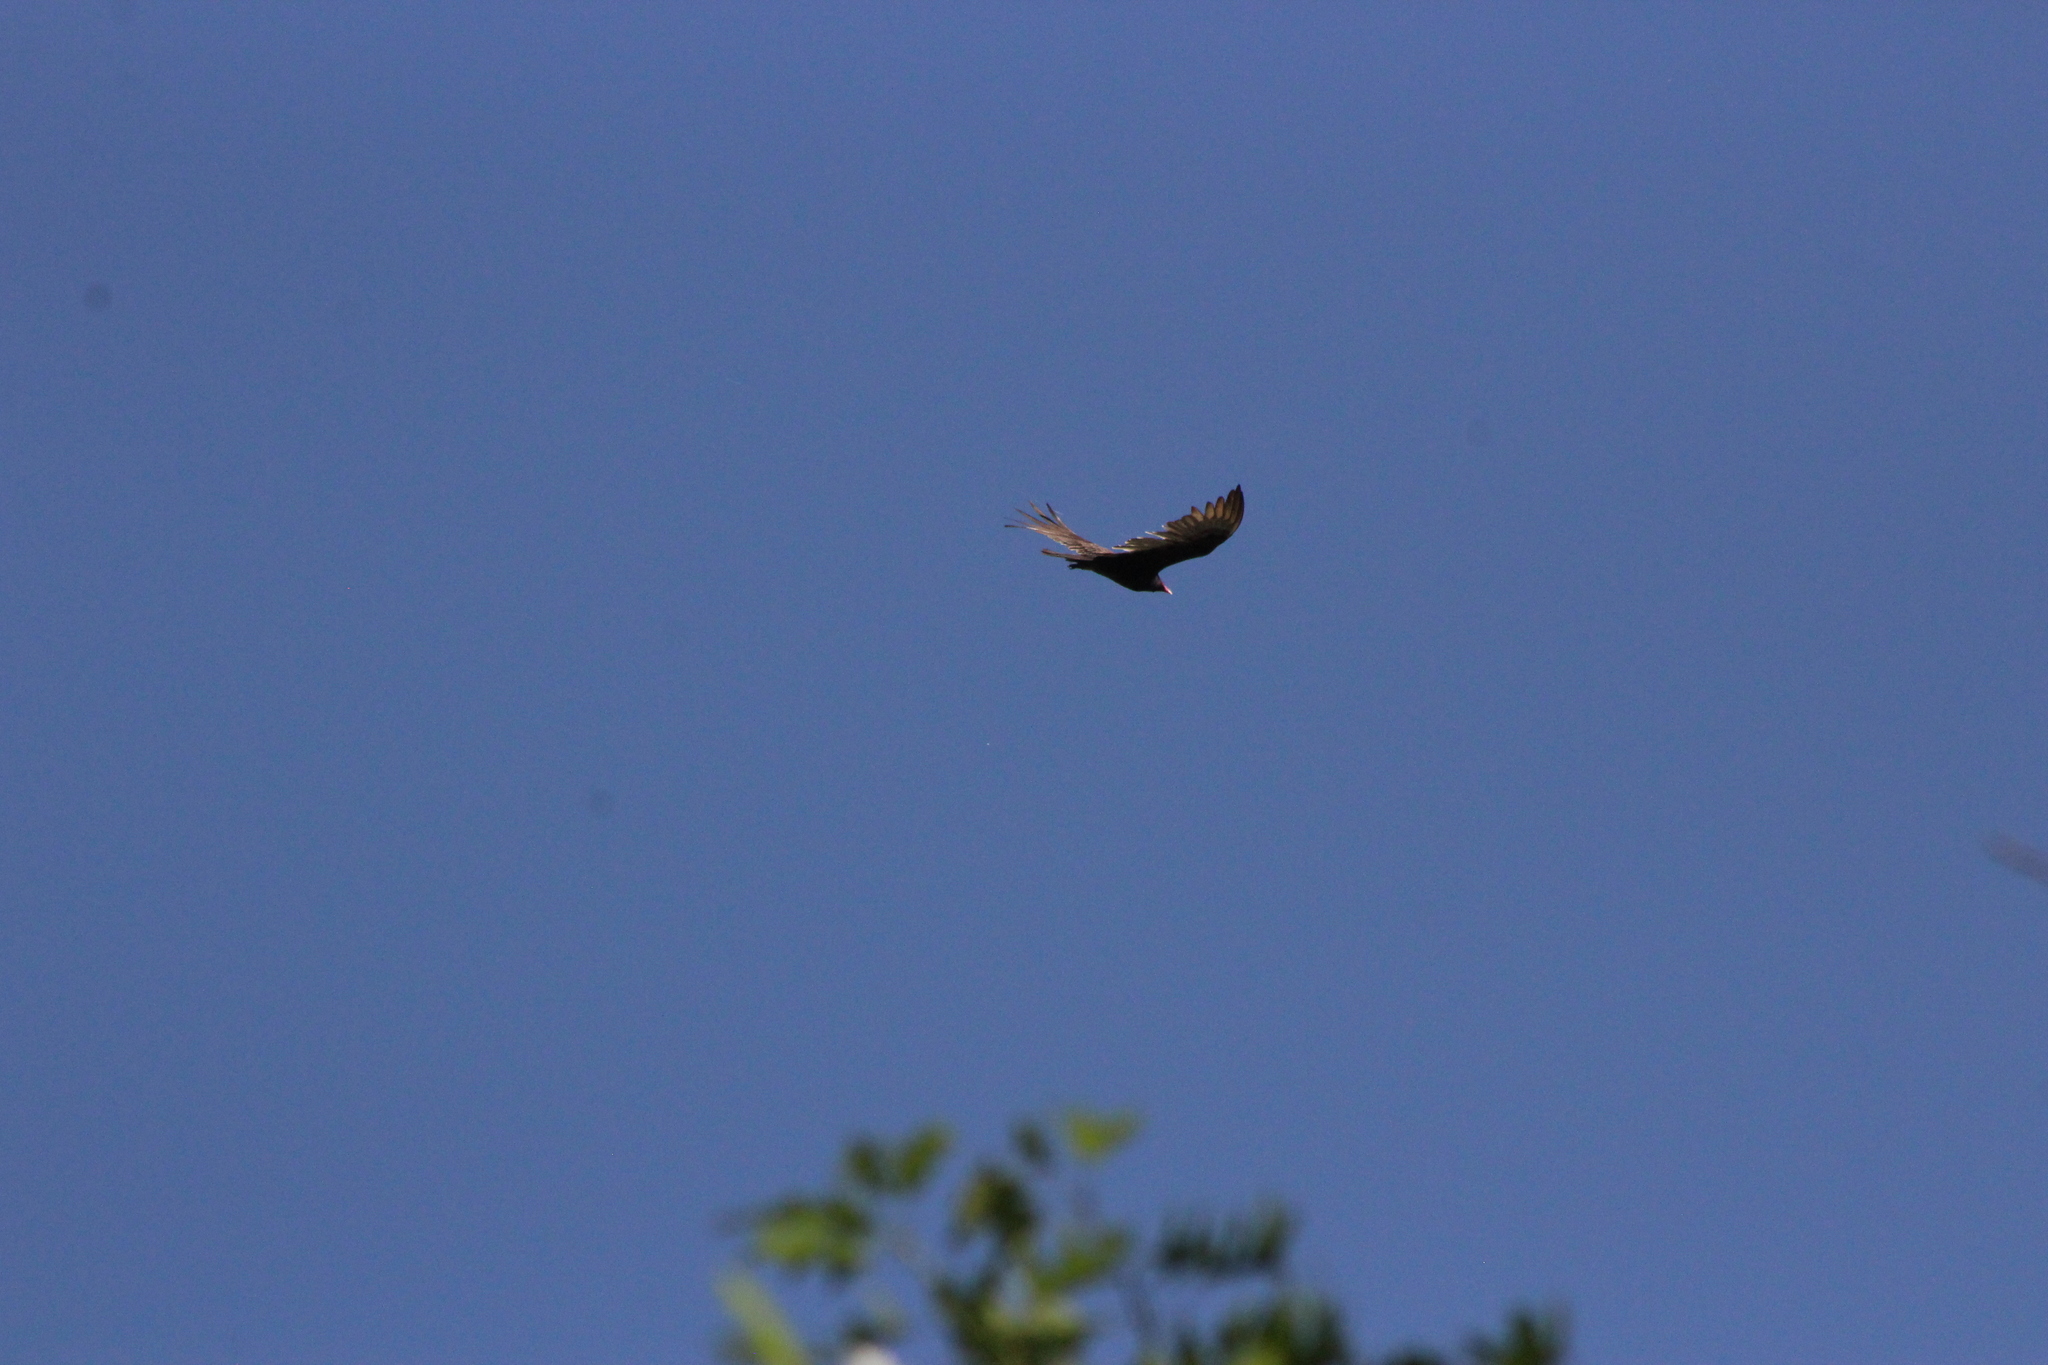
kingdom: Animalia
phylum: Chordata
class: Aves
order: Accipitriformes
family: Cathartidae
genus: Cathartes
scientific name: Cathartes aura
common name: Turkey vulture
